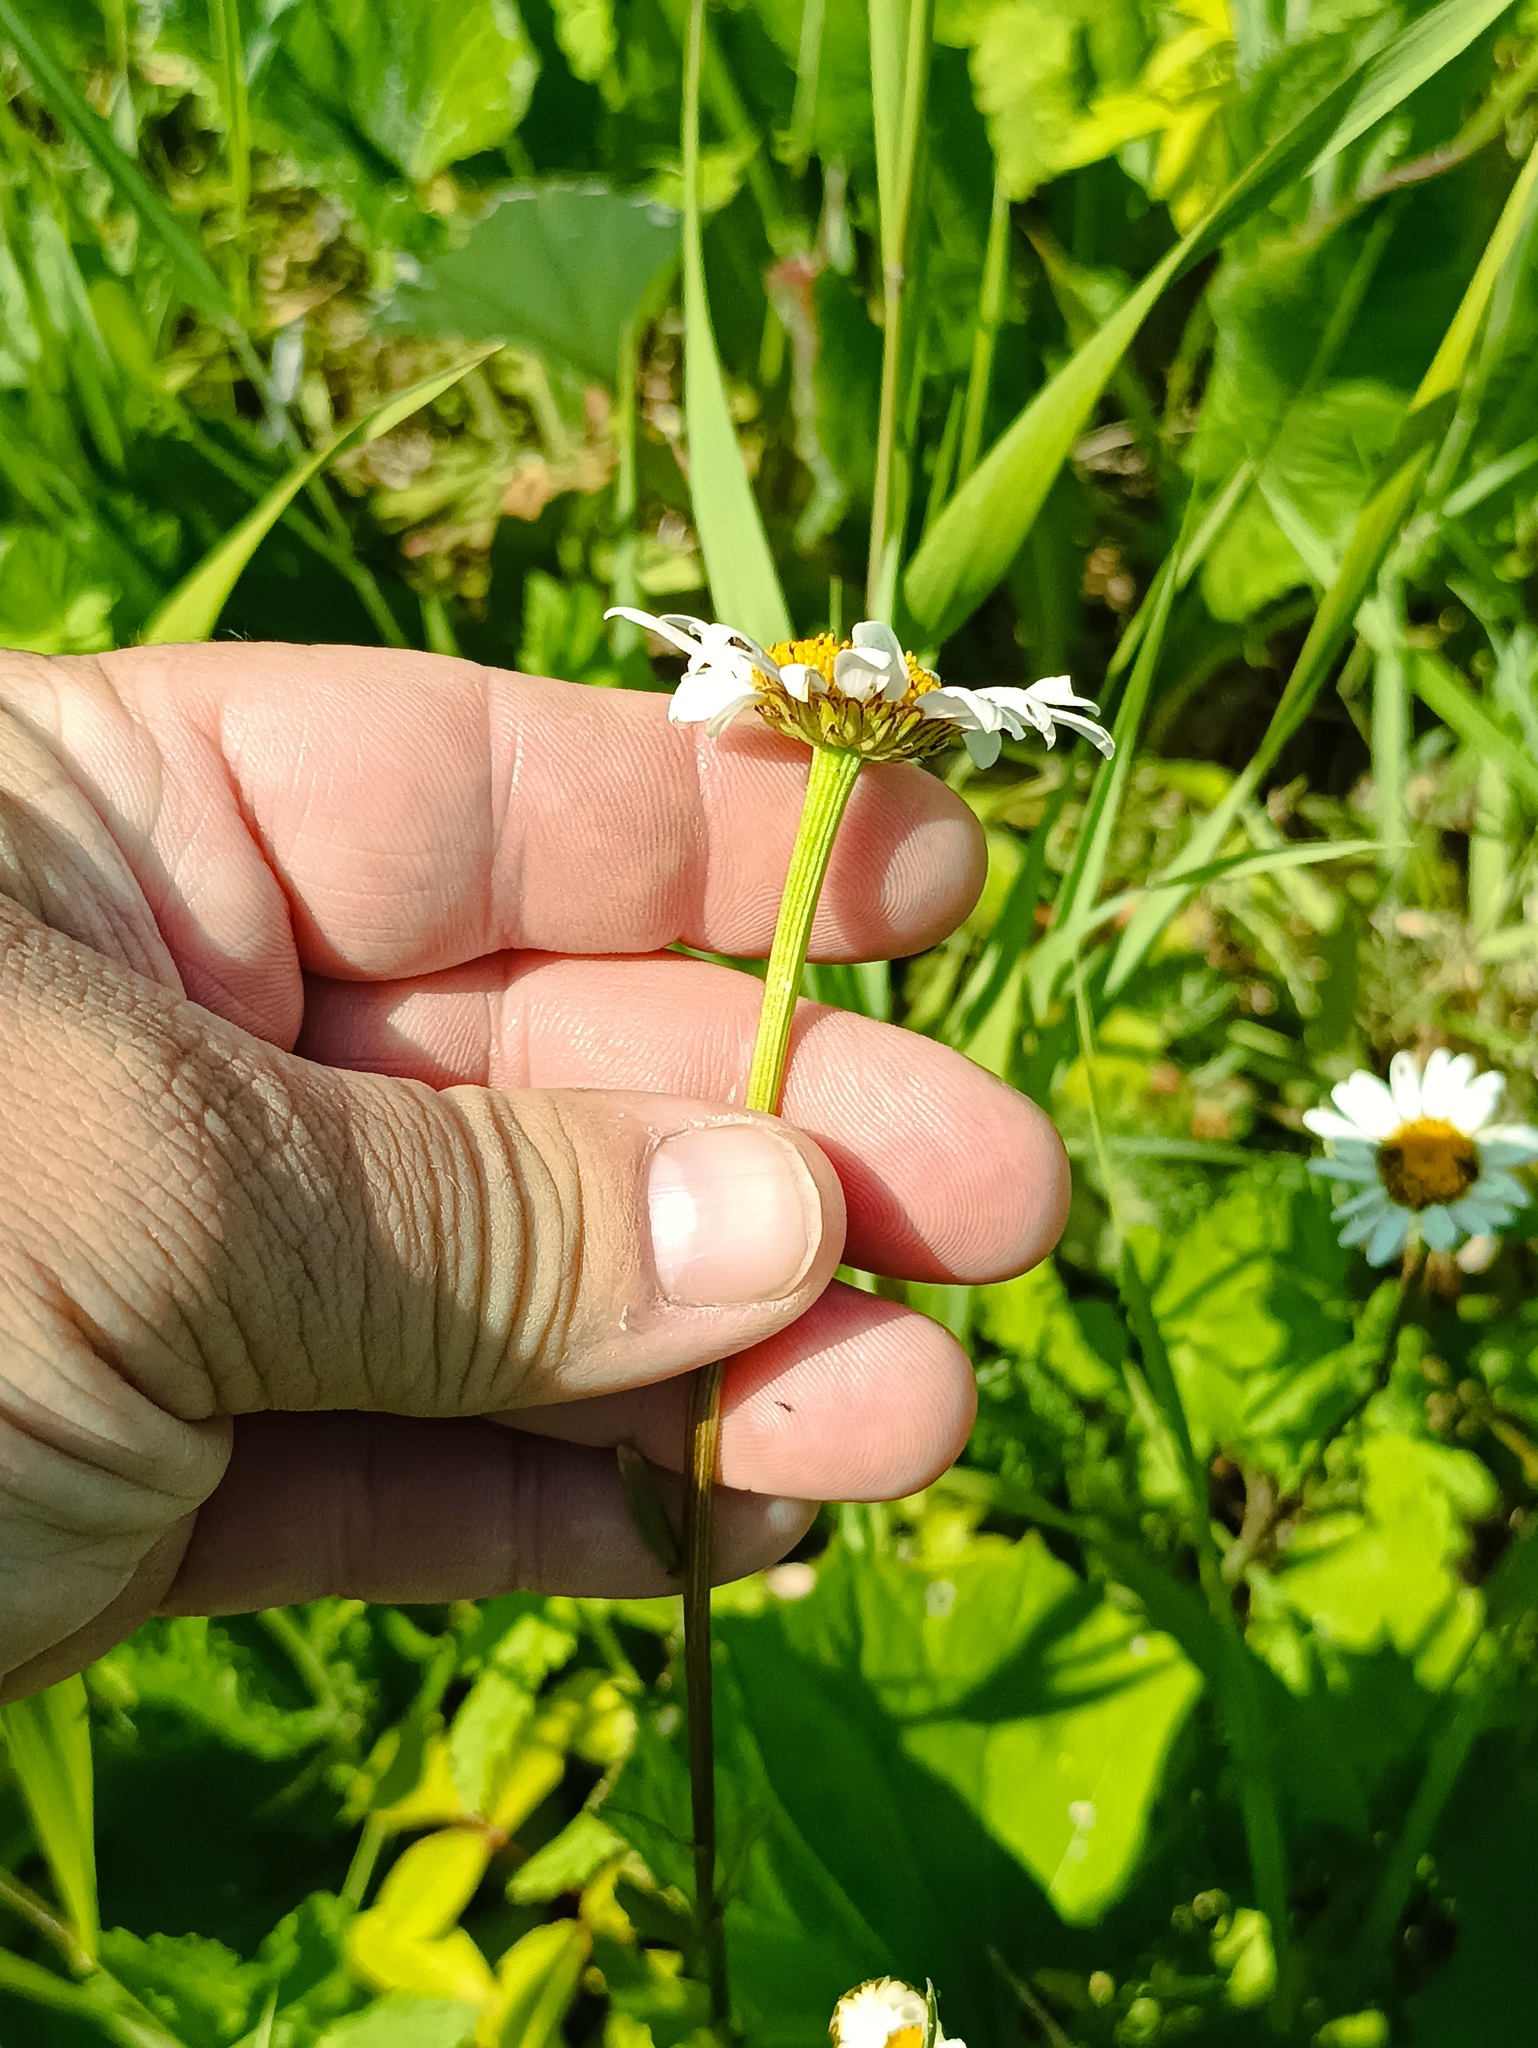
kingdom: Plantae
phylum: Tracheophyta
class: Magnoliopsida
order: Asterales
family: Asteraceae
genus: Leucanthemum
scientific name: Leucanthemum vulgare
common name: Oxeye daisy
